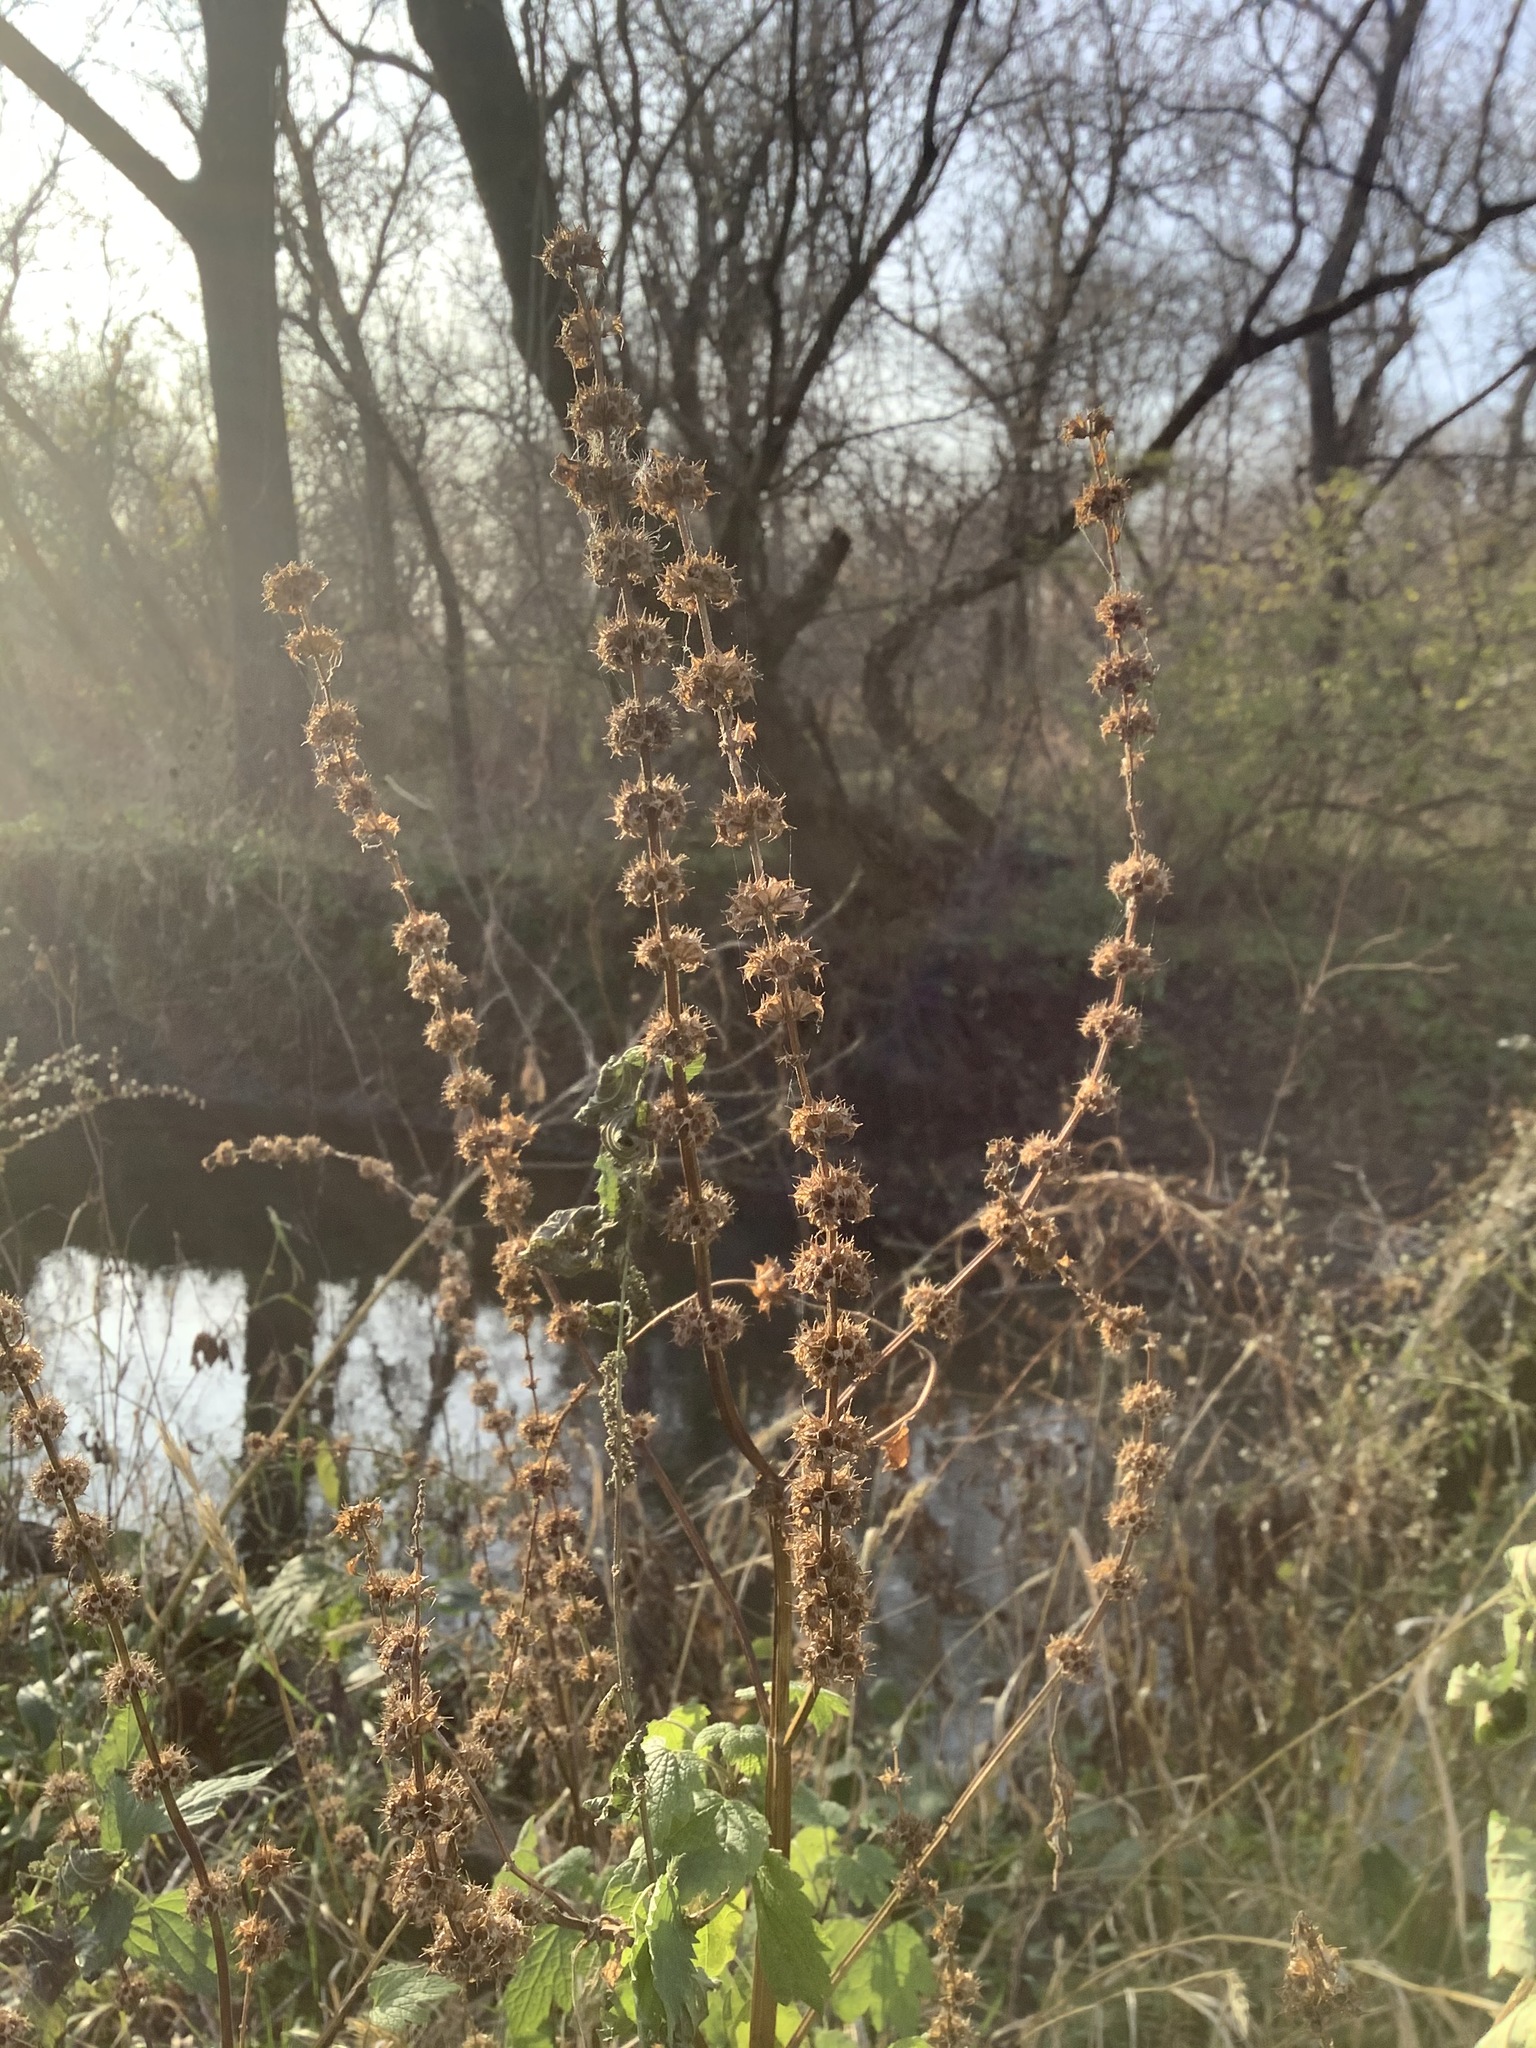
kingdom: Plantae
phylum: Tracheophyta
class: Magnoliopsida
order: Lamiales
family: Lamiaceae
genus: Leonurus
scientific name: Leonurus cardiaca
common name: Motherwort
